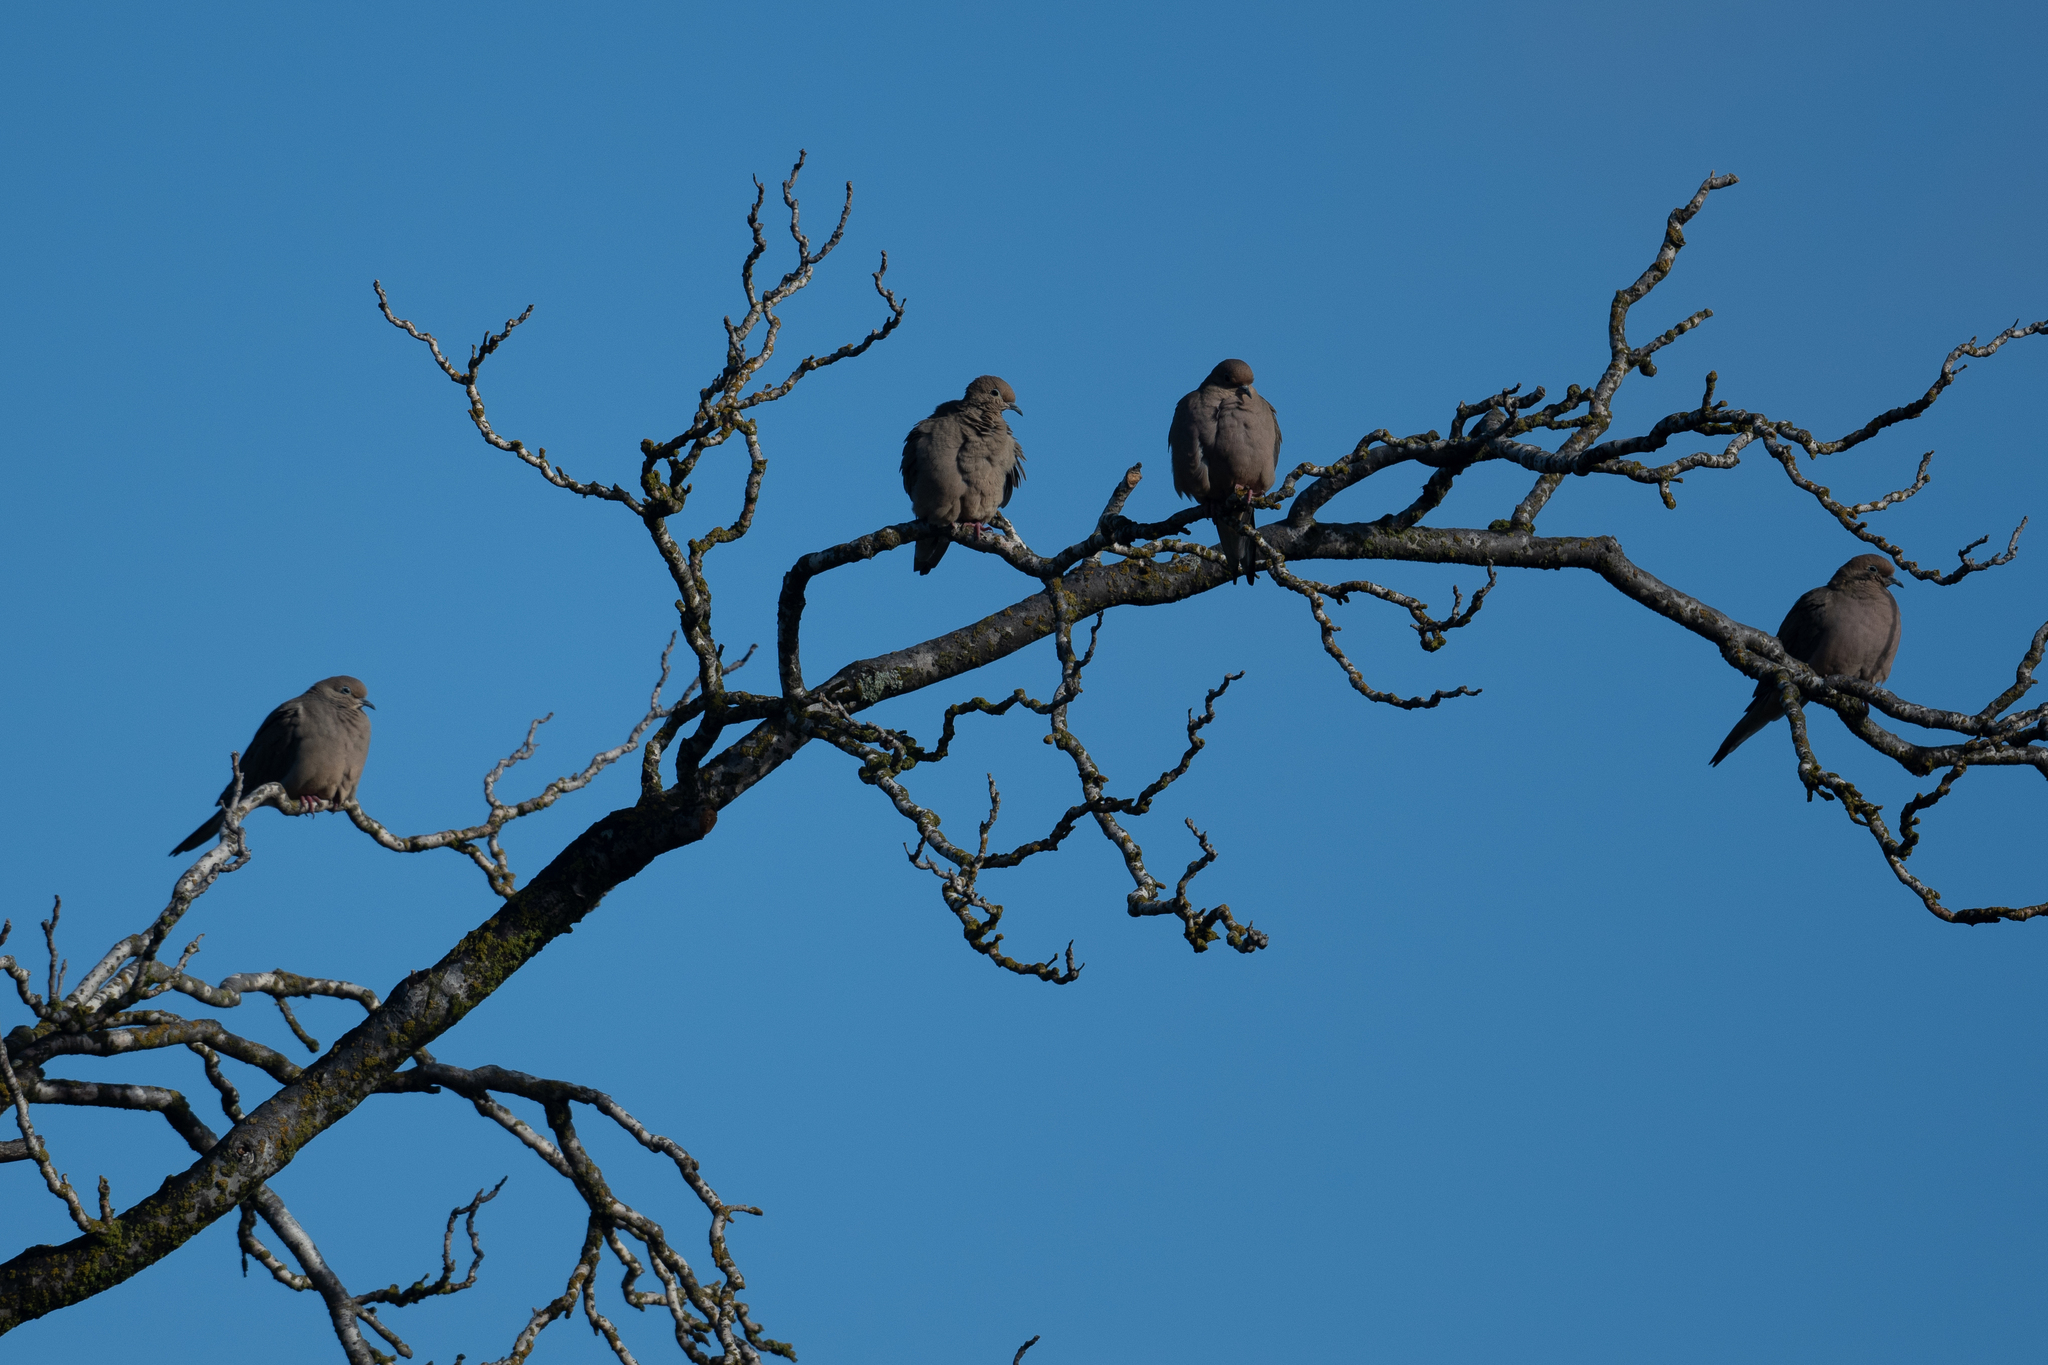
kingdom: Animalia
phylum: Chordata
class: Aves
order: Columbiformes
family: Columbidae
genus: Zenaida
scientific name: Zenaida macroura
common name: Mourning dove
